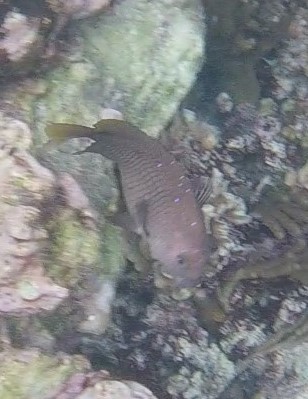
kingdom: Animalia
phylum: Chordata
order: Perciformes
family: Pomacentridae
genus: Microspathodon
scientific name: Microspathodon chrysurus
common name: Yellowtail damselfish
